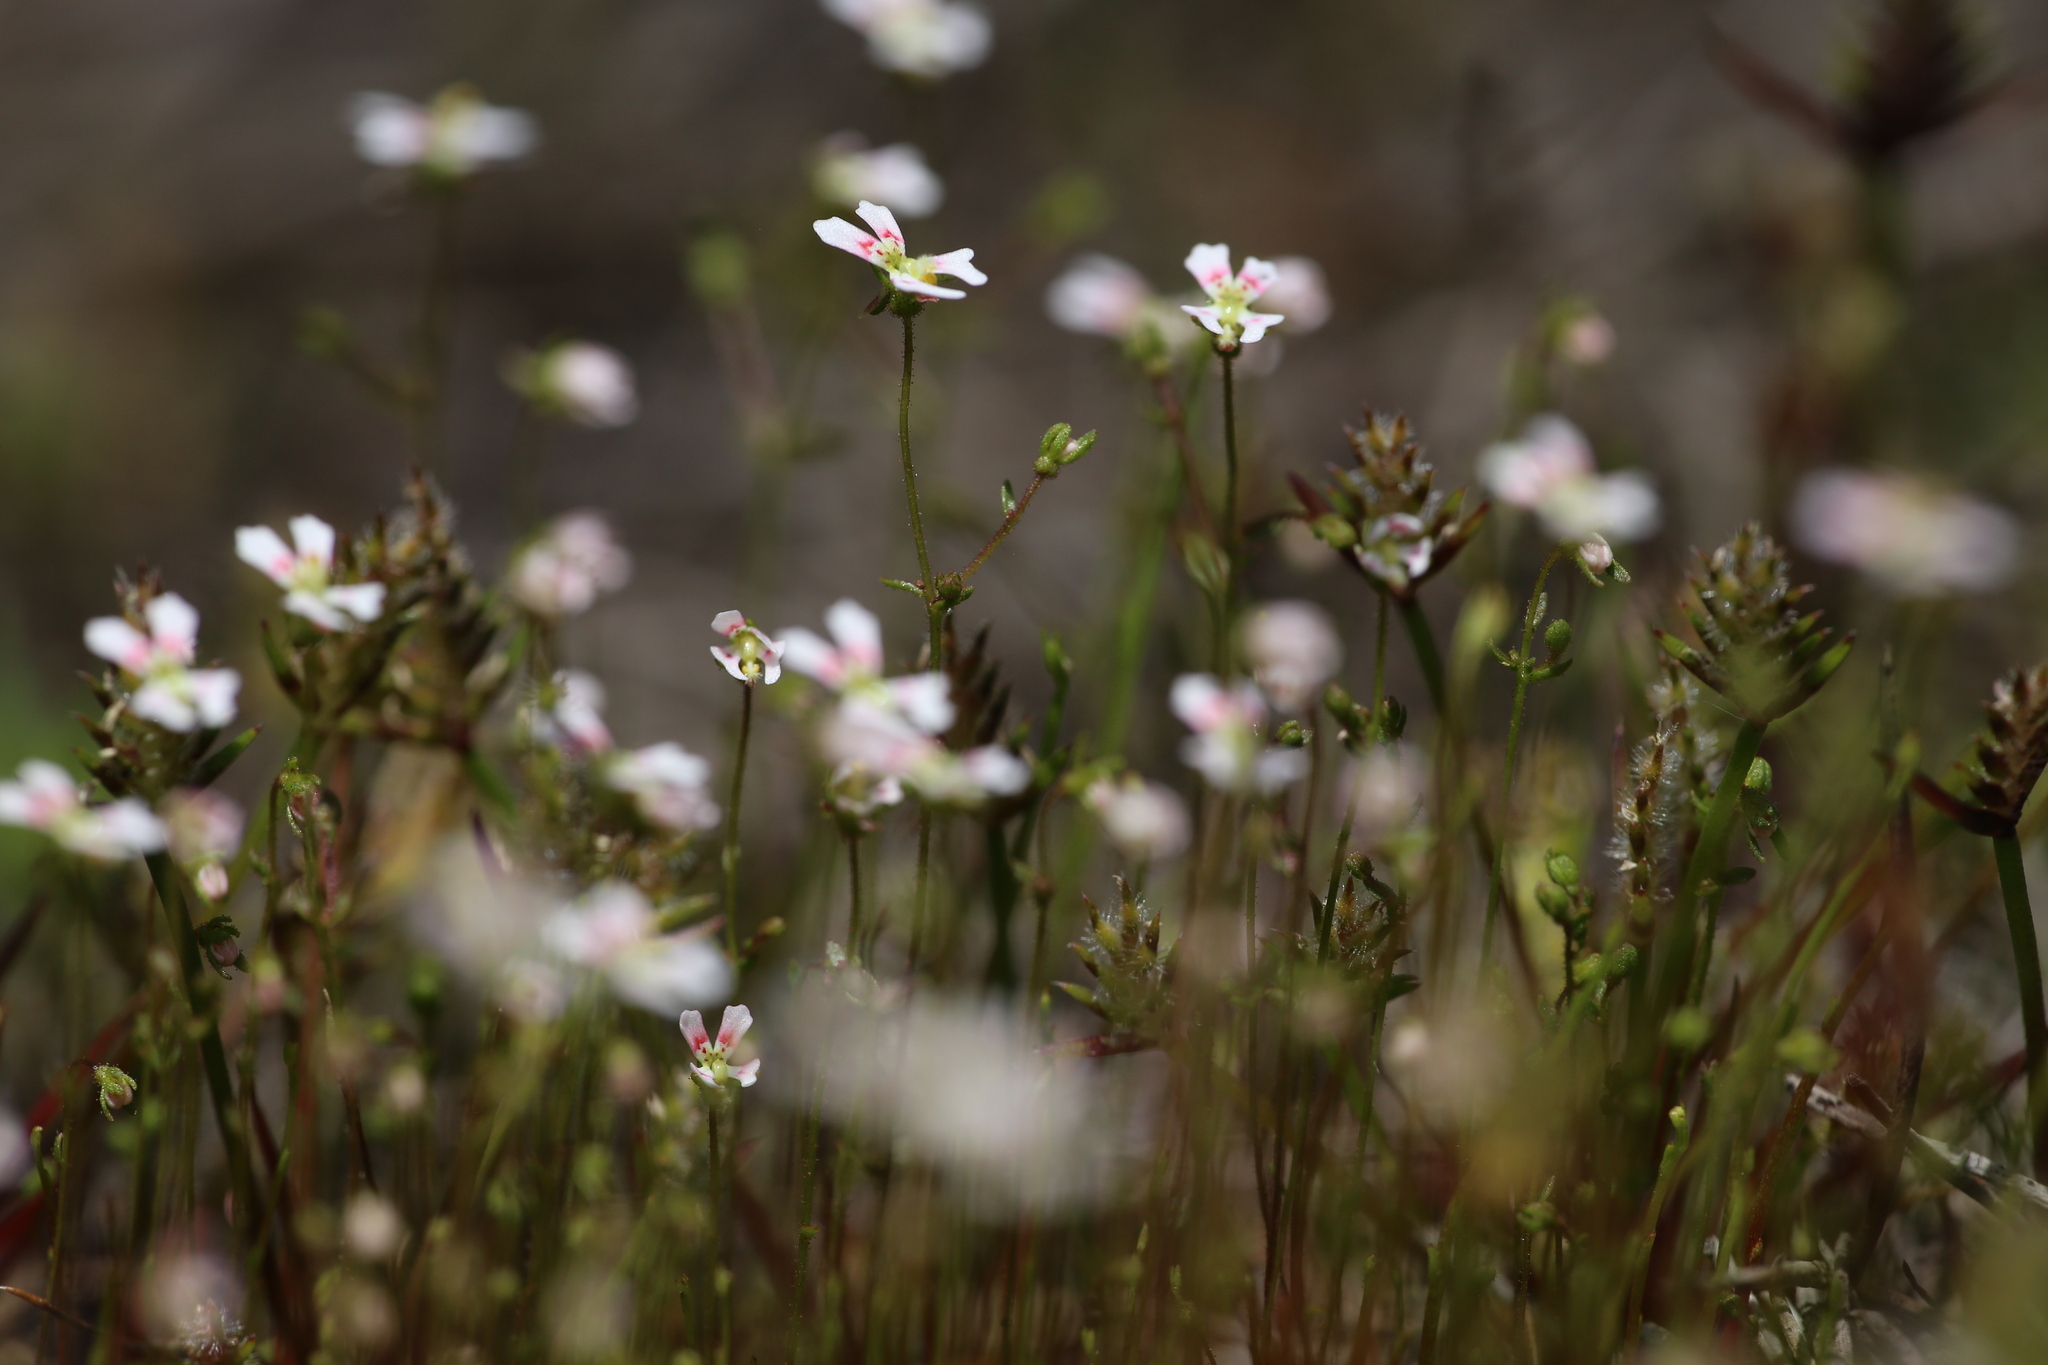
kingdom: Plantae
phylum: Tracheophyta
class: Magnoliopsida
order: Asterales
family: Stylidiaceae
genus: Stylidium
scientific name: Stylidium calcaratum
